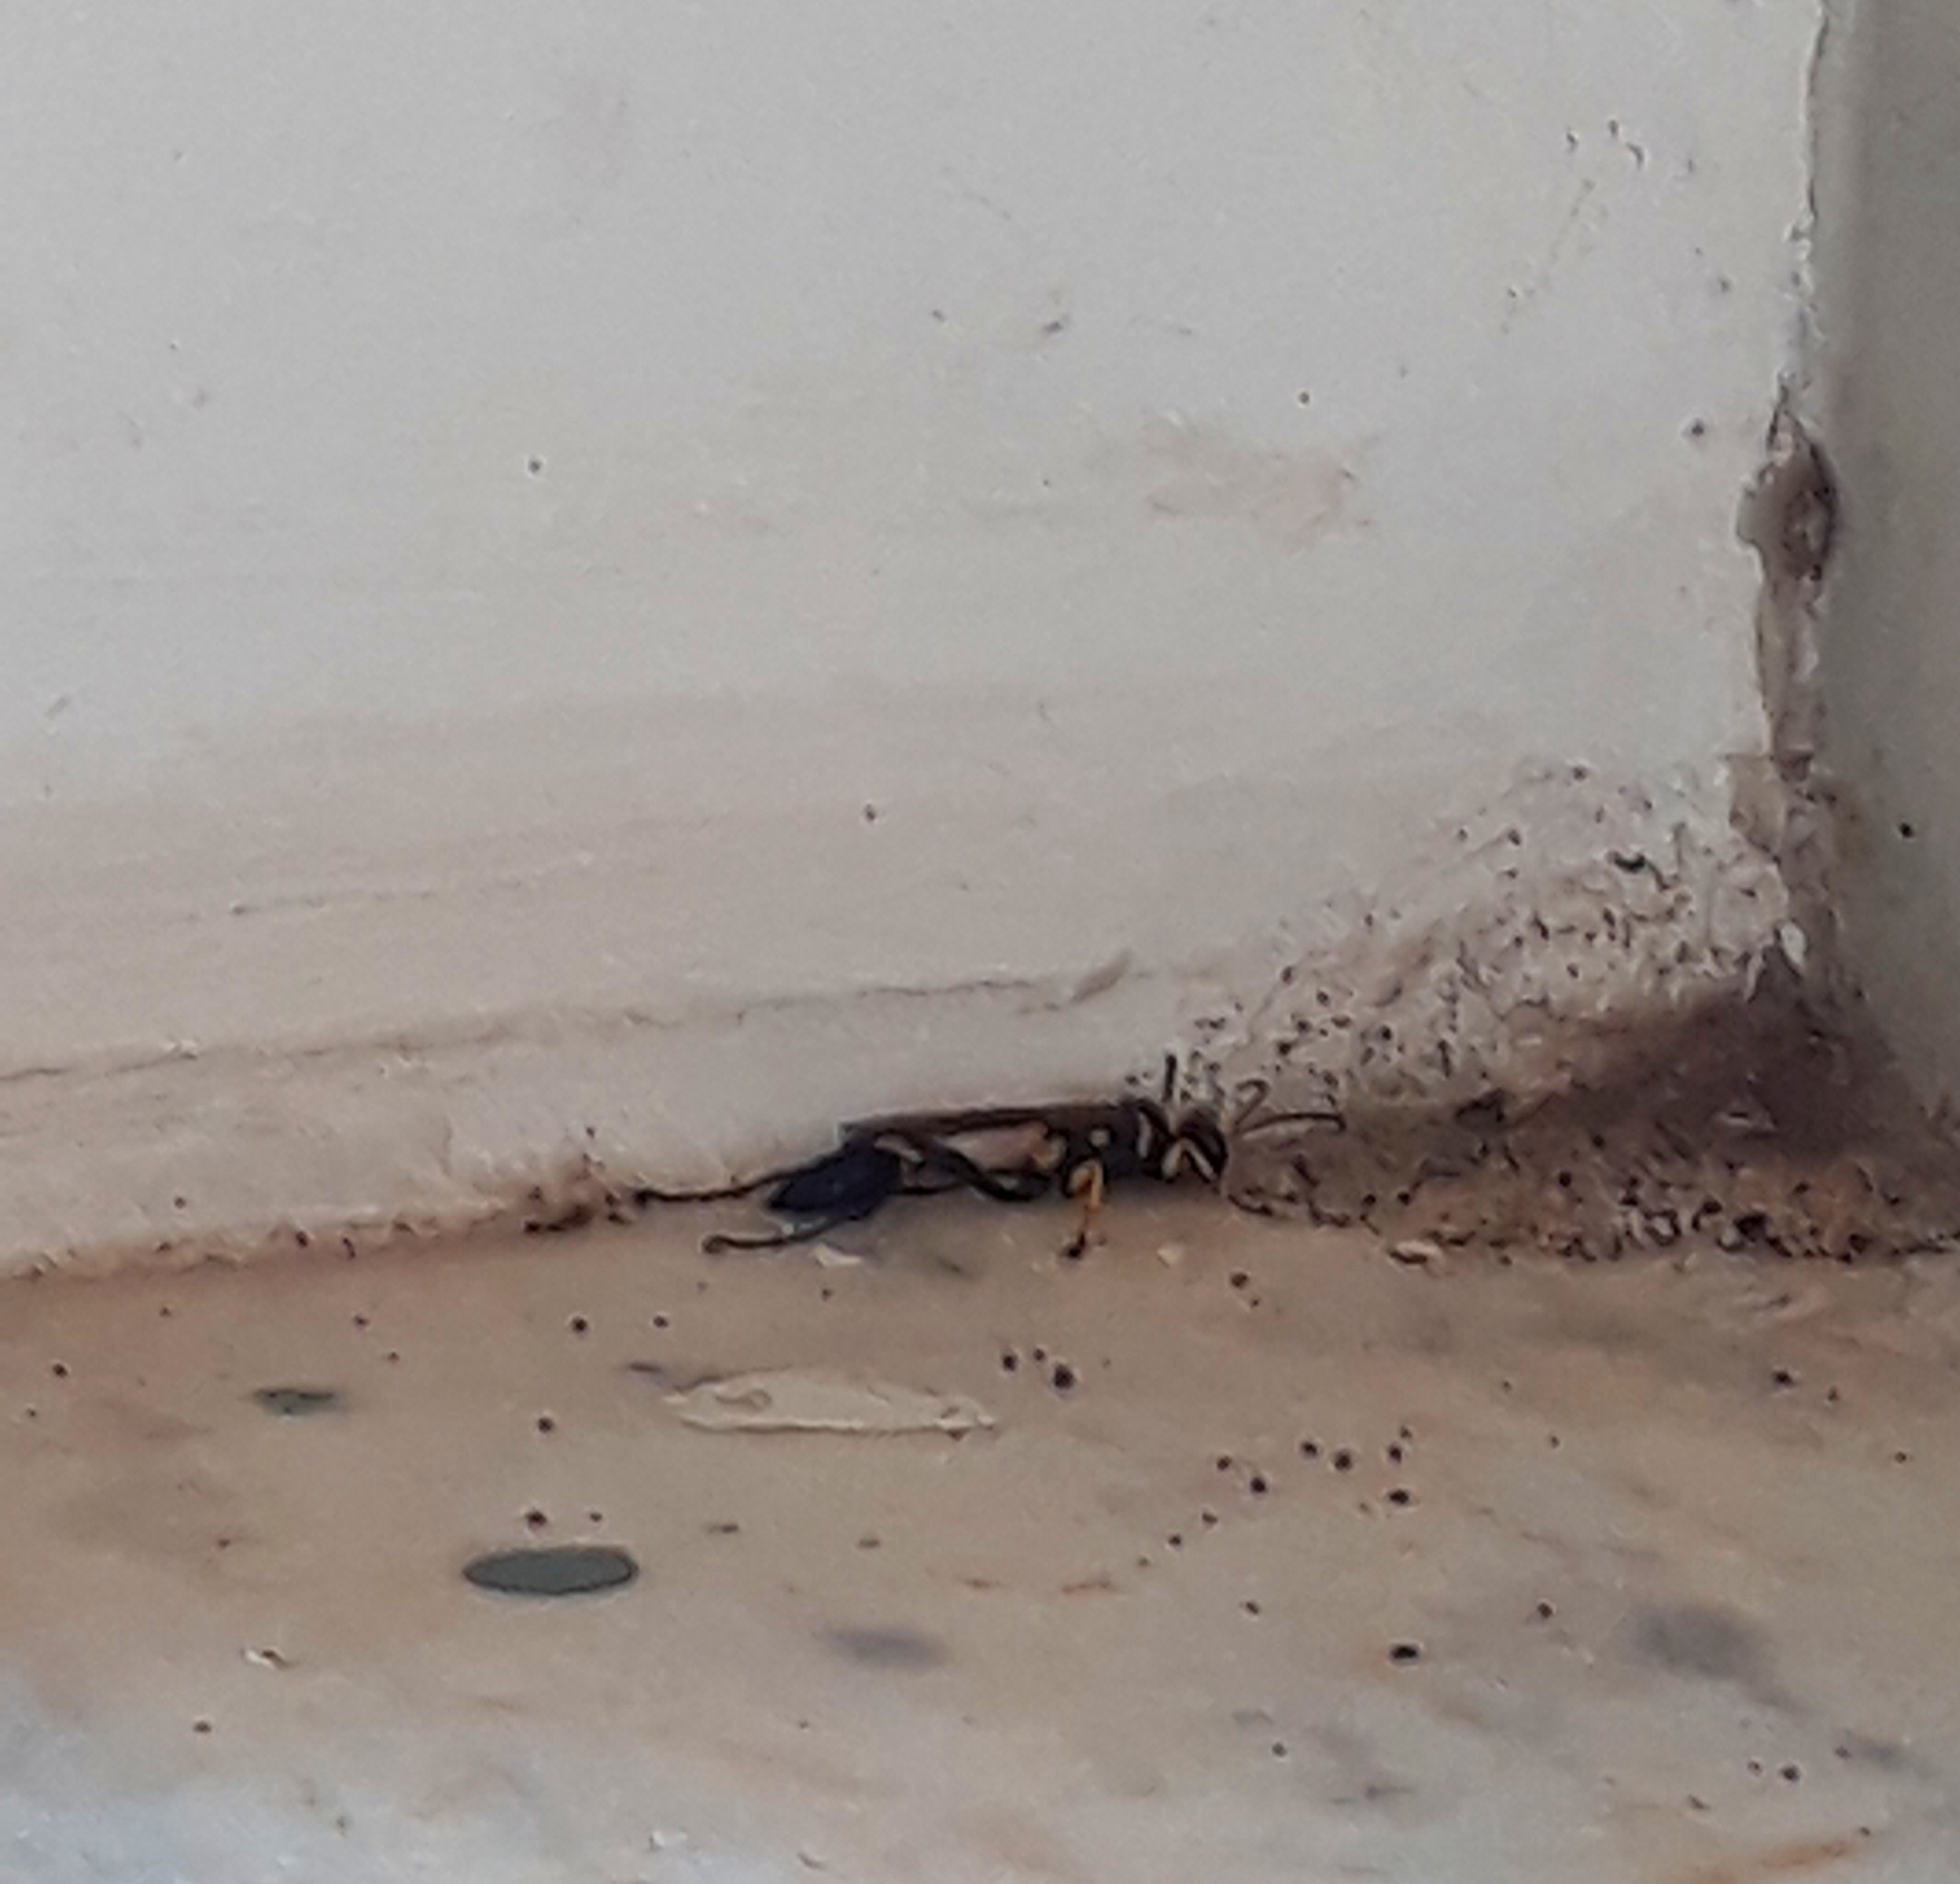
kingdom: Animalia
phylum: Arthropoda
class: Insecta
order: Hymenoptera
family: Sphecidae
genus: Sceliphron
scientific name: Sceliphron asiaticum
